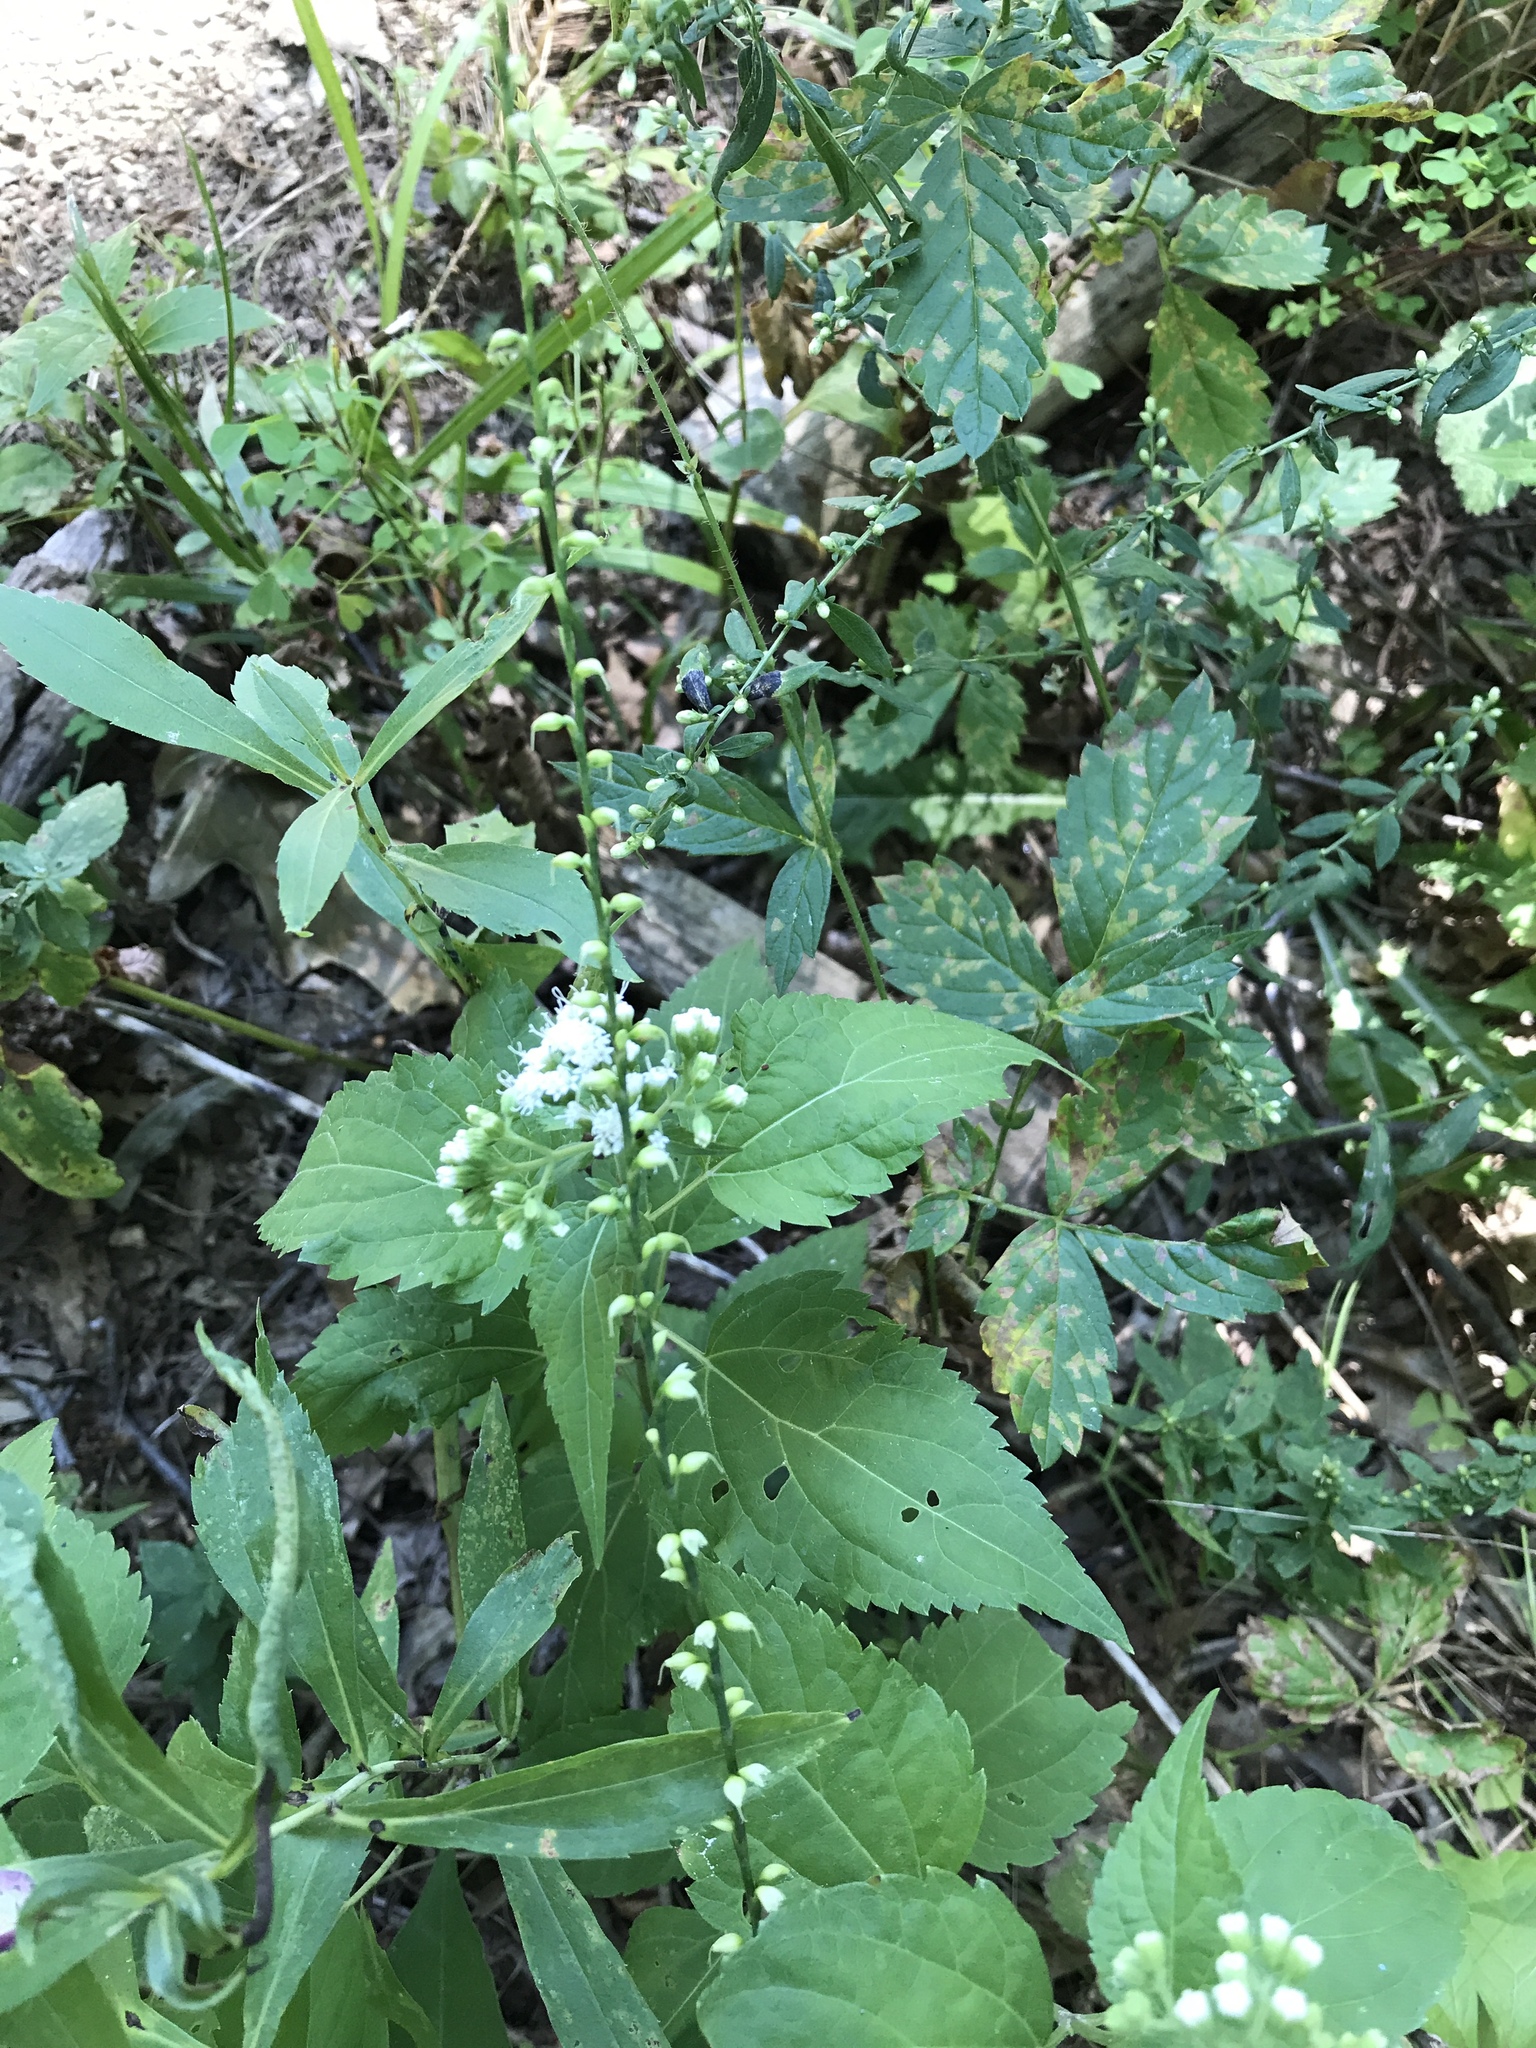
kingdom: Plantae
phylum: Tracheophyta
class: Magnoliopsida
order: Asterales
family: Asteraceae
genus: Ageratina
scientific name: Ageratina altissima
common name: White snakeroot
